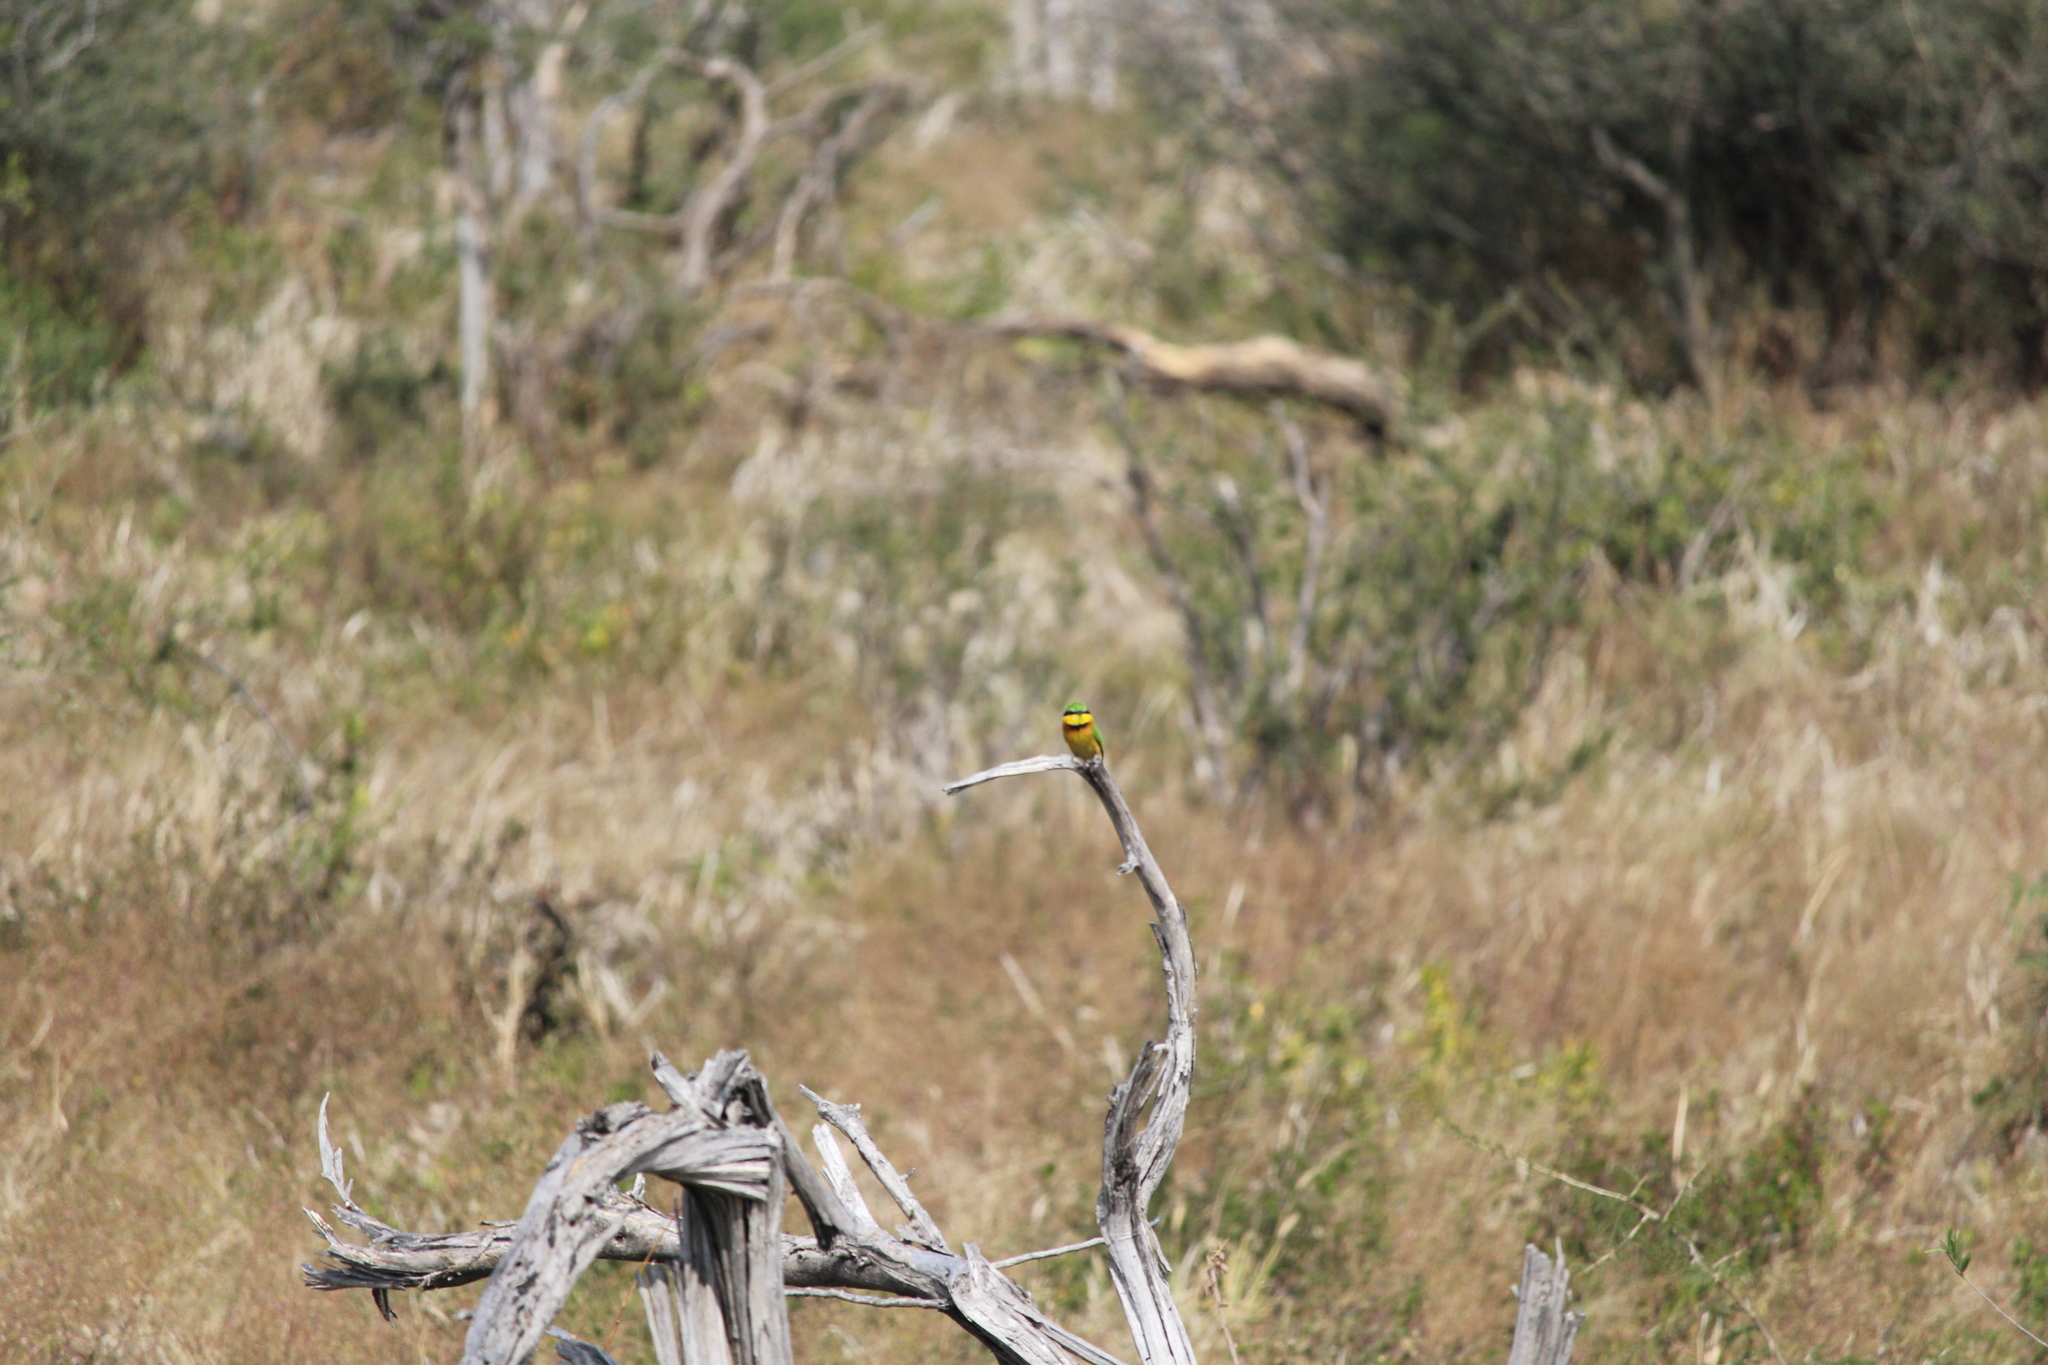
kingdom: Animalia
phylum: Chordata
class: Aves
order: Coraciiformes
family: Meropidae
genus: Merops
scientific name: Merops pusillus
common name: Little bee-eater
